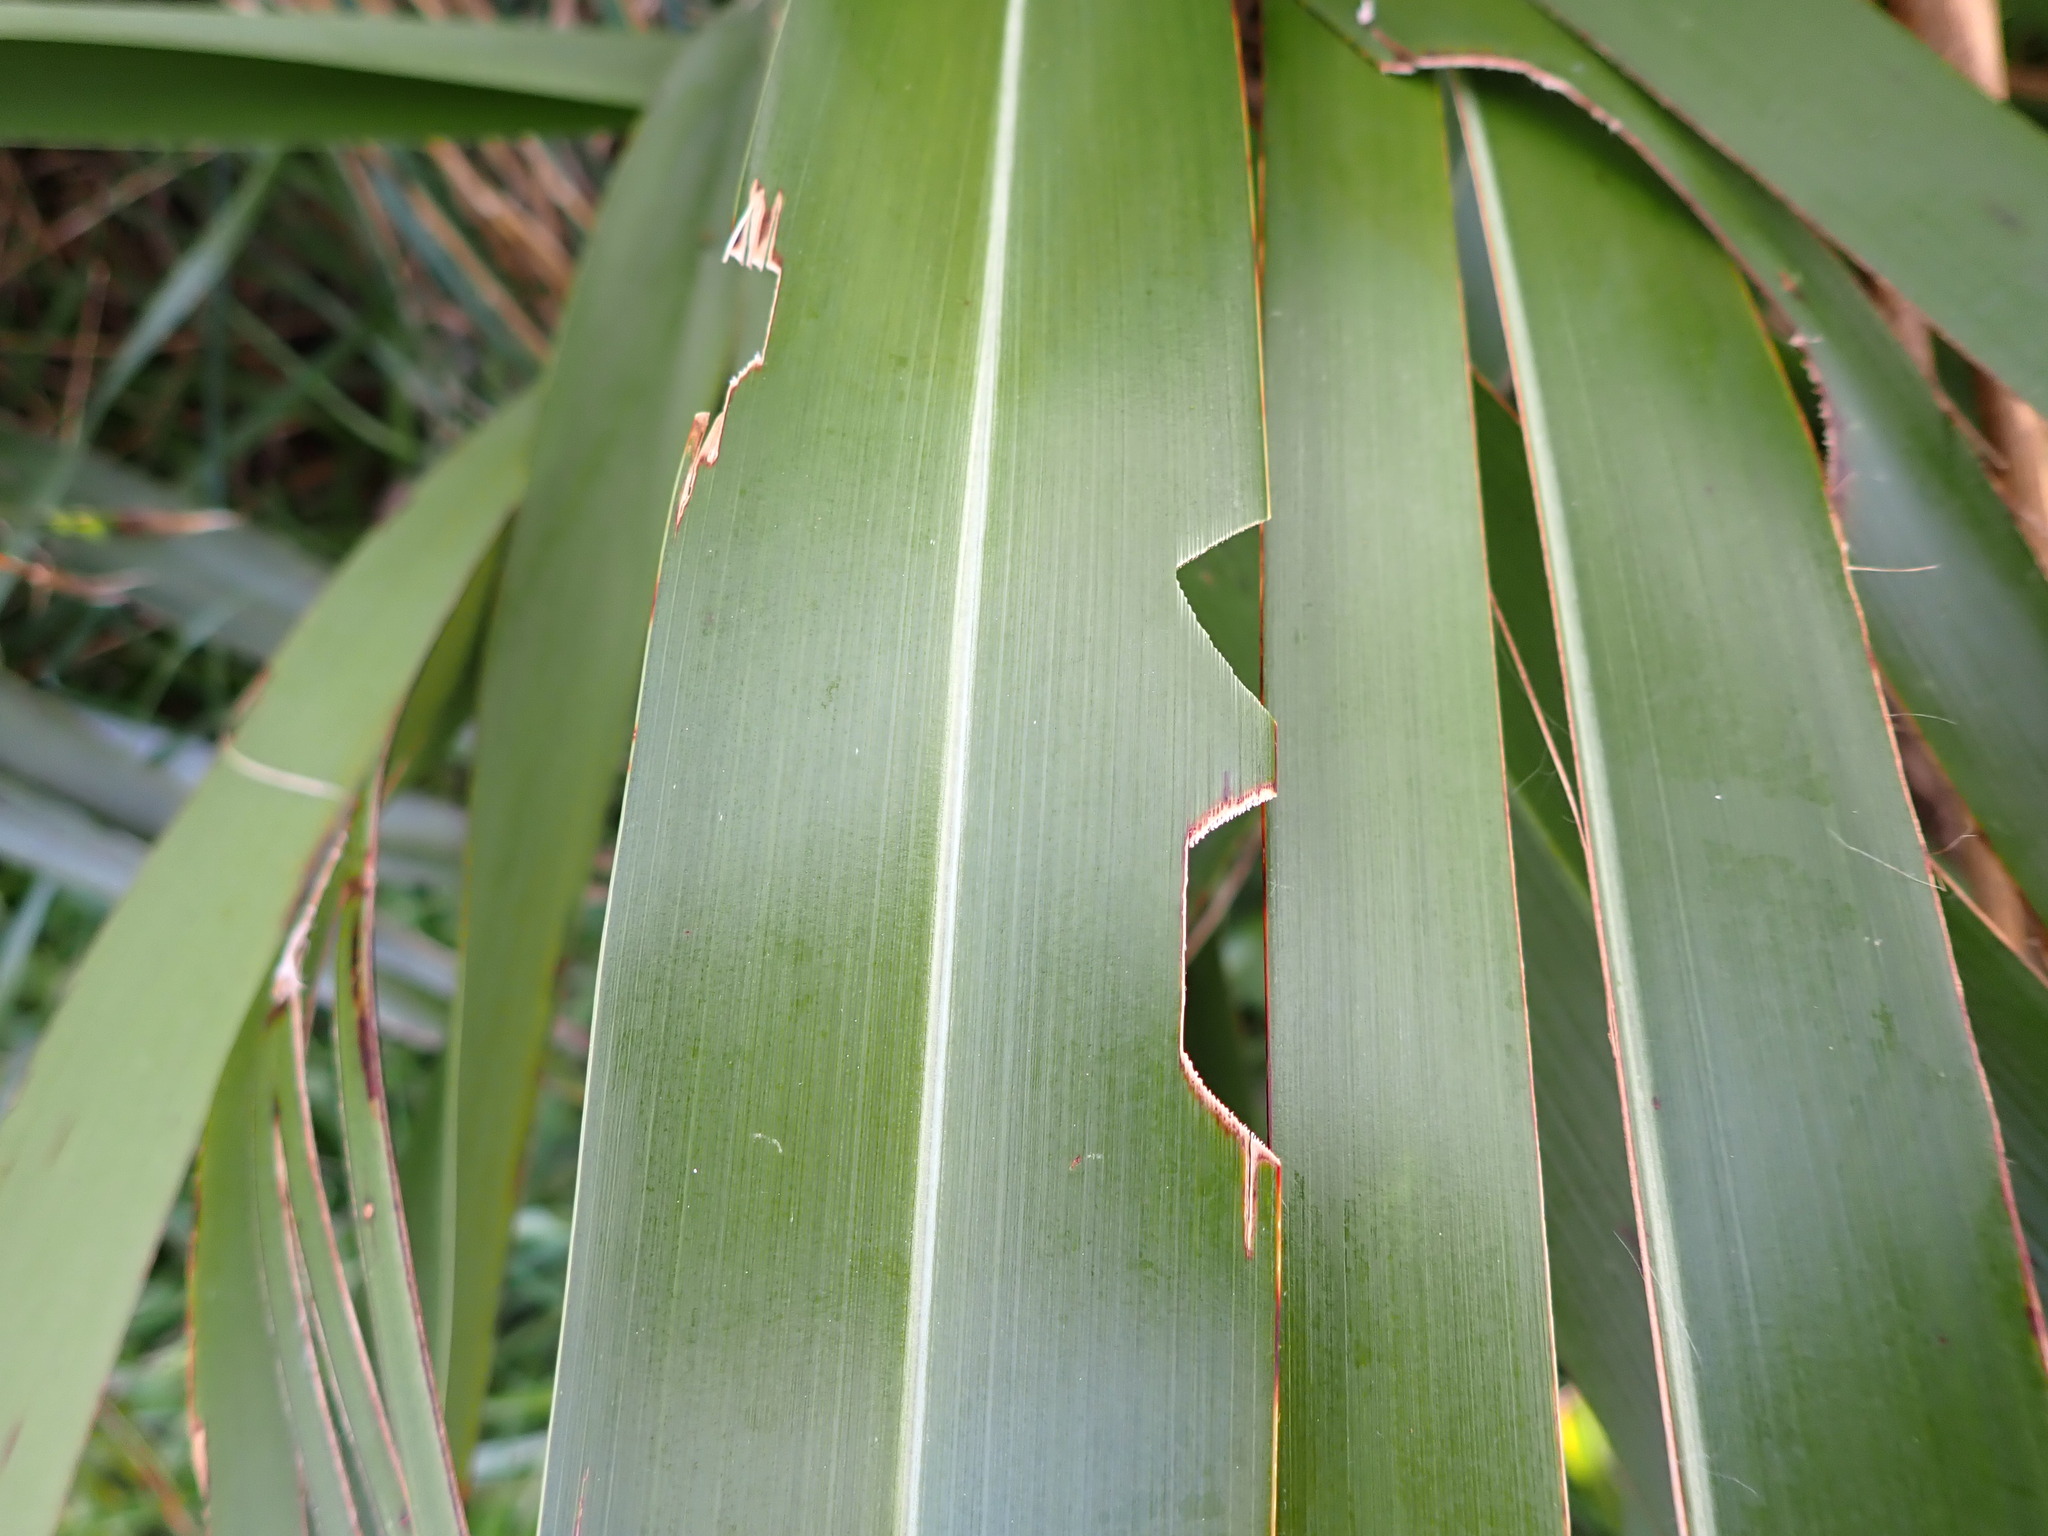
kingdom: Animalia
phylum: Arthropoda
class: Insecta
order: Lepidoptera
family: Noctuidae
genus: Ichneutica
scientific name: Ichneutica
